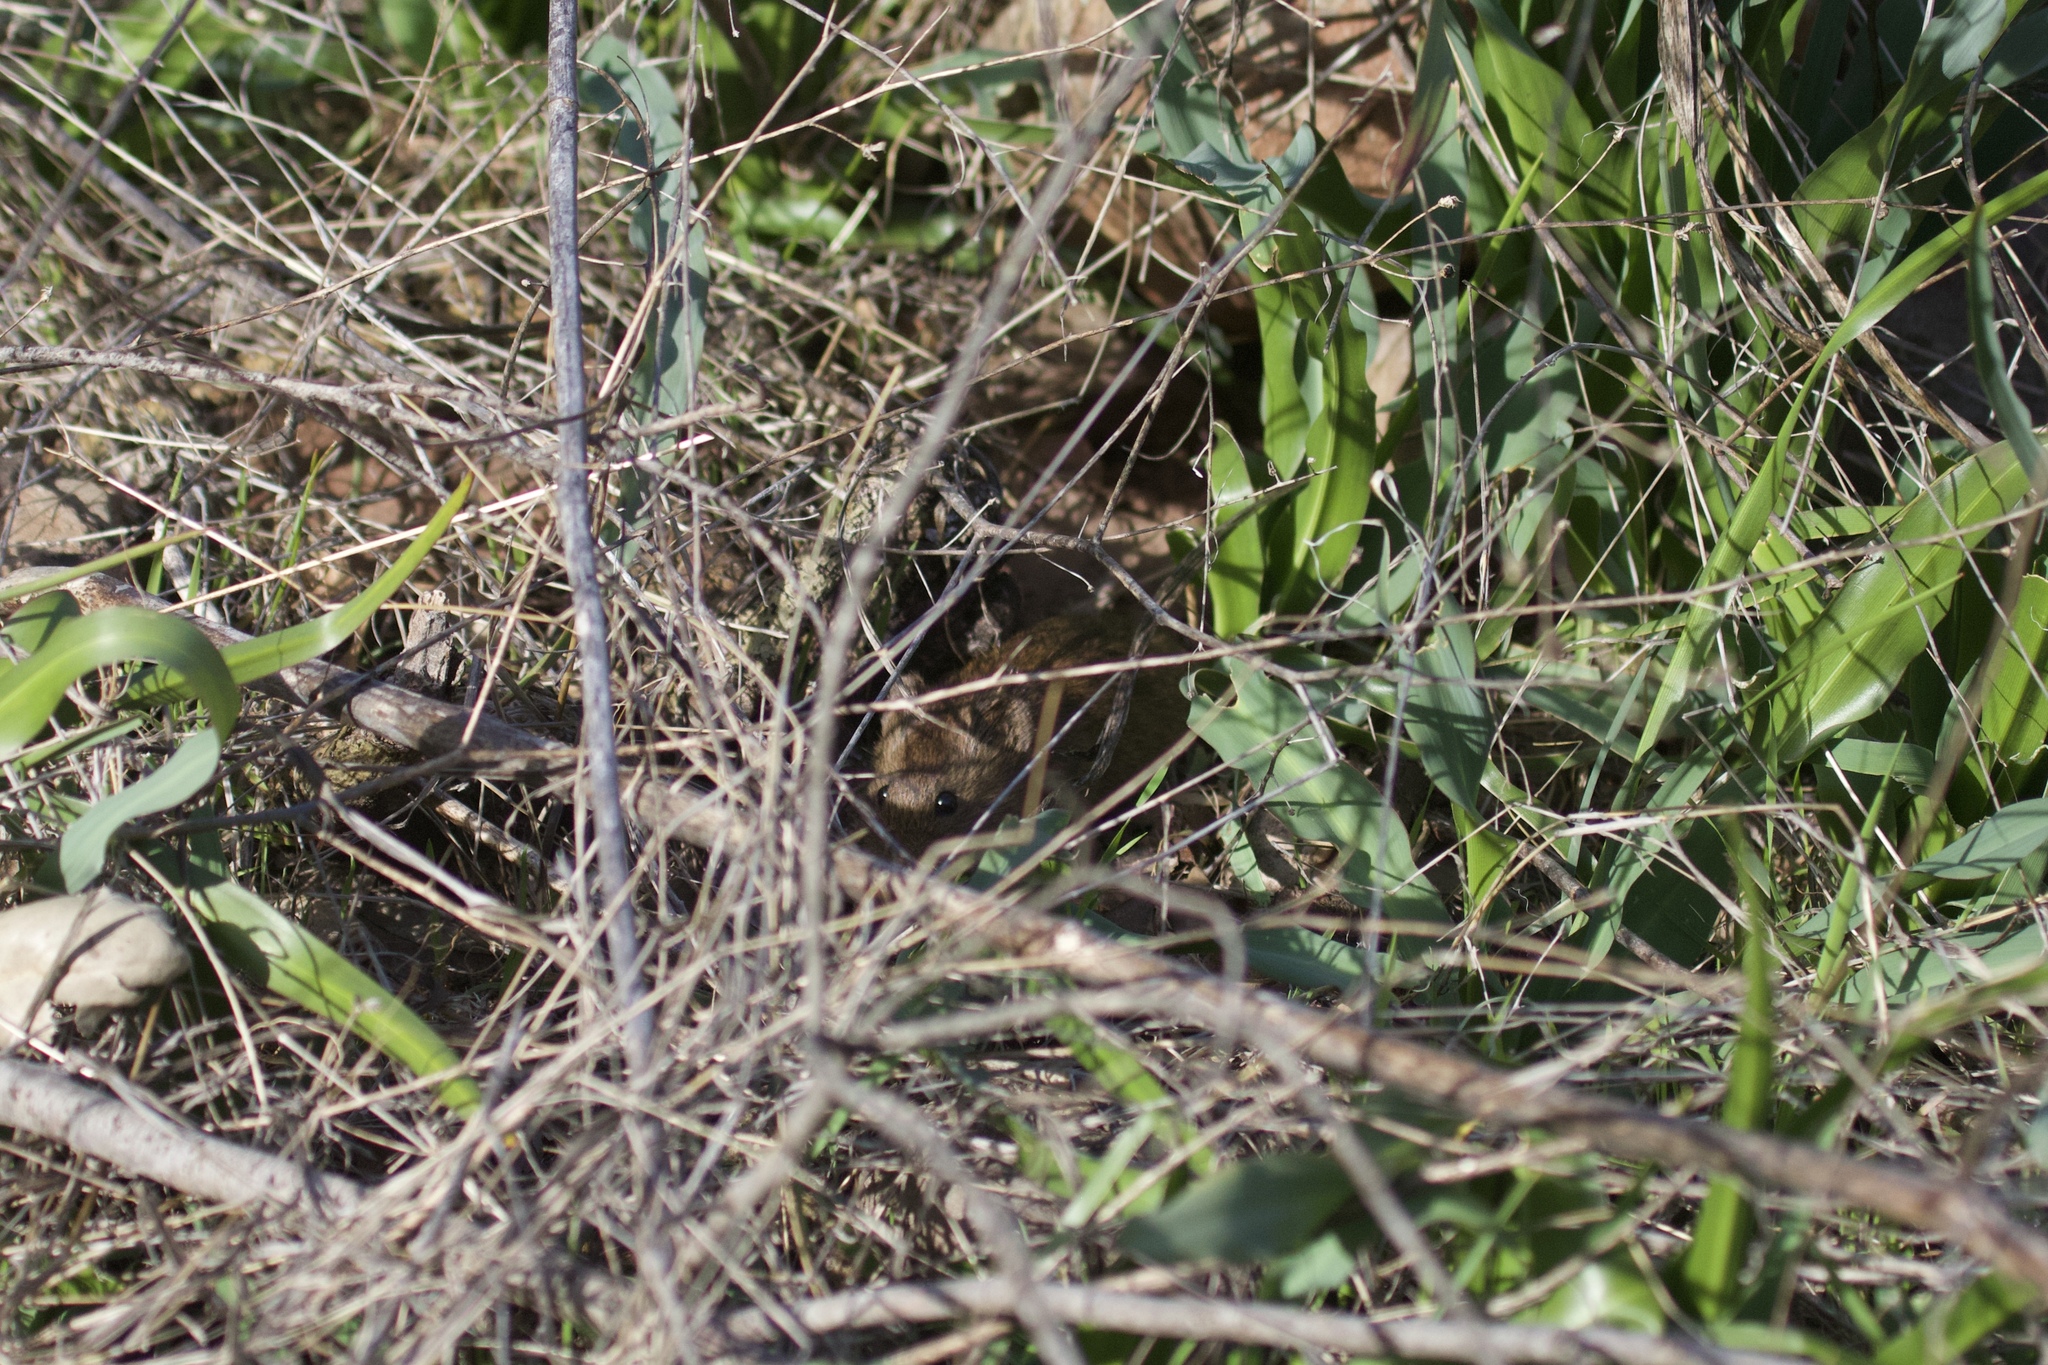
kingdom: Animalia
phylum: Chordata
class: Mammalia
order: Rodentia
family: Cricetidae
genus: Microtus
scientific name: Microtus californicus
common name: California vole
